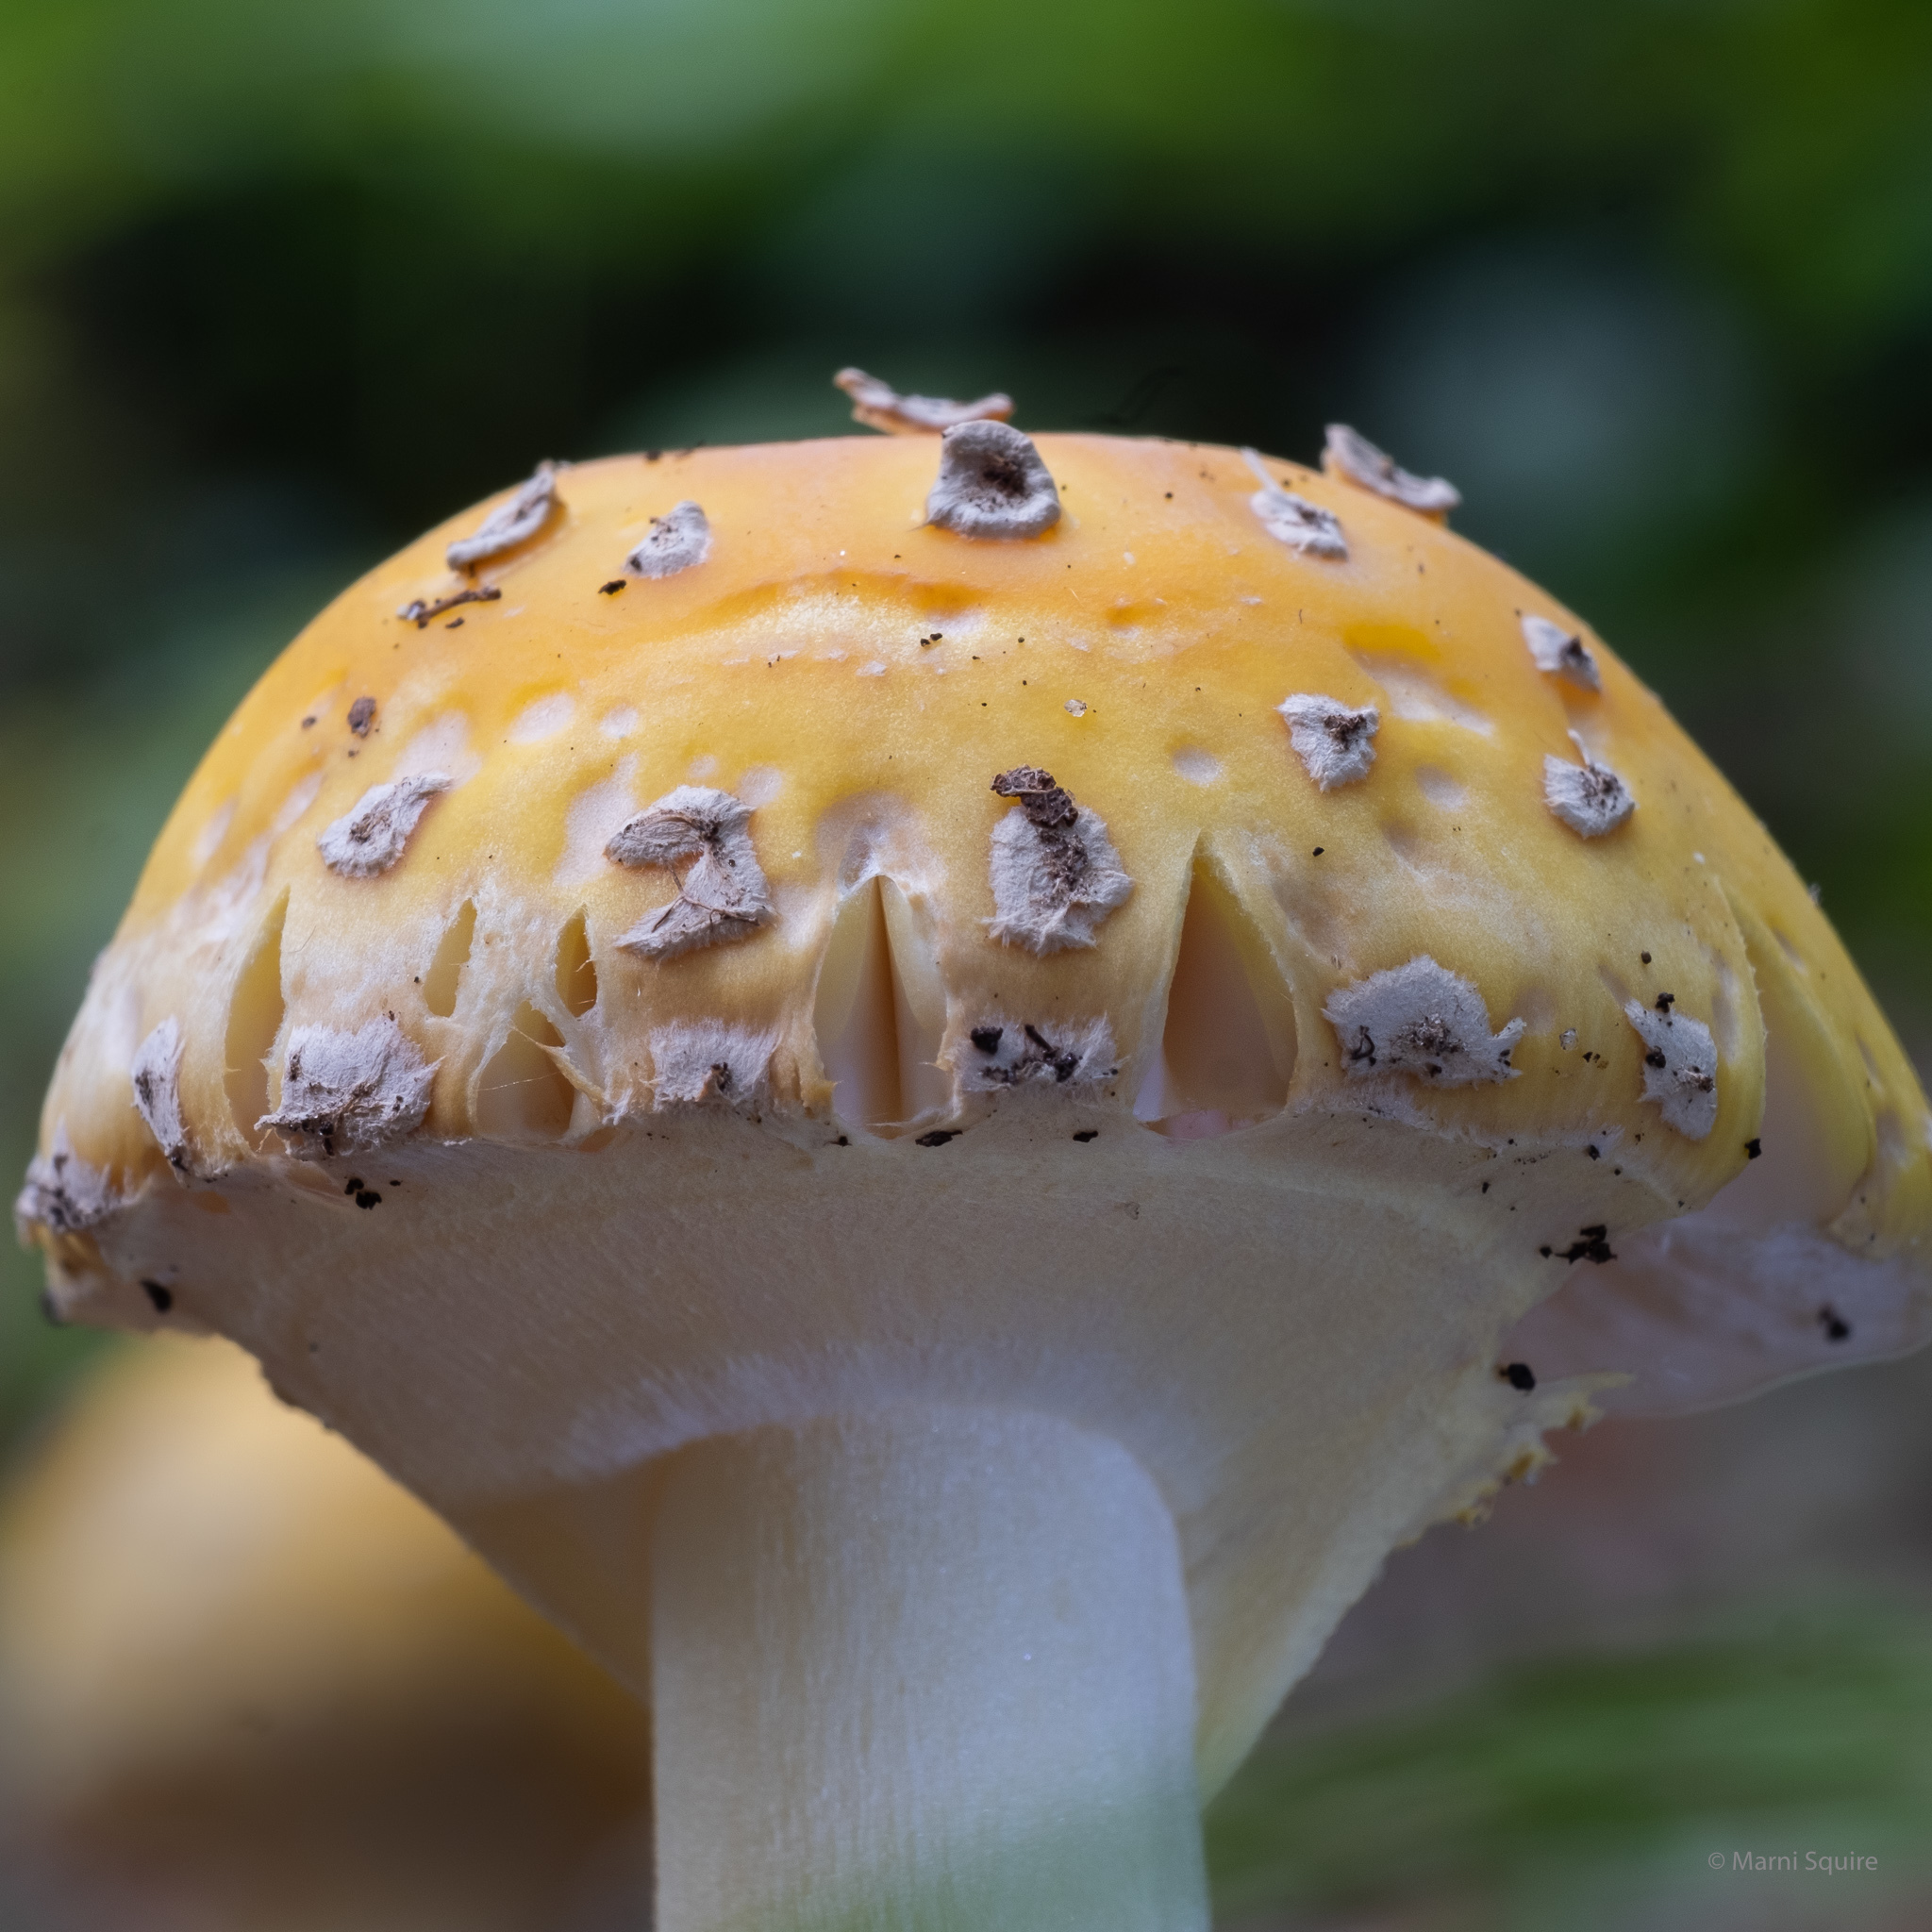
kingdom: Fungi
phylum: Basidiomycota
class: Agaricomycetes
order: Agaricales
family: Amanitaceae
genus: Amanita
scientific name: Amanita muscaria
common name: Fly agaric
